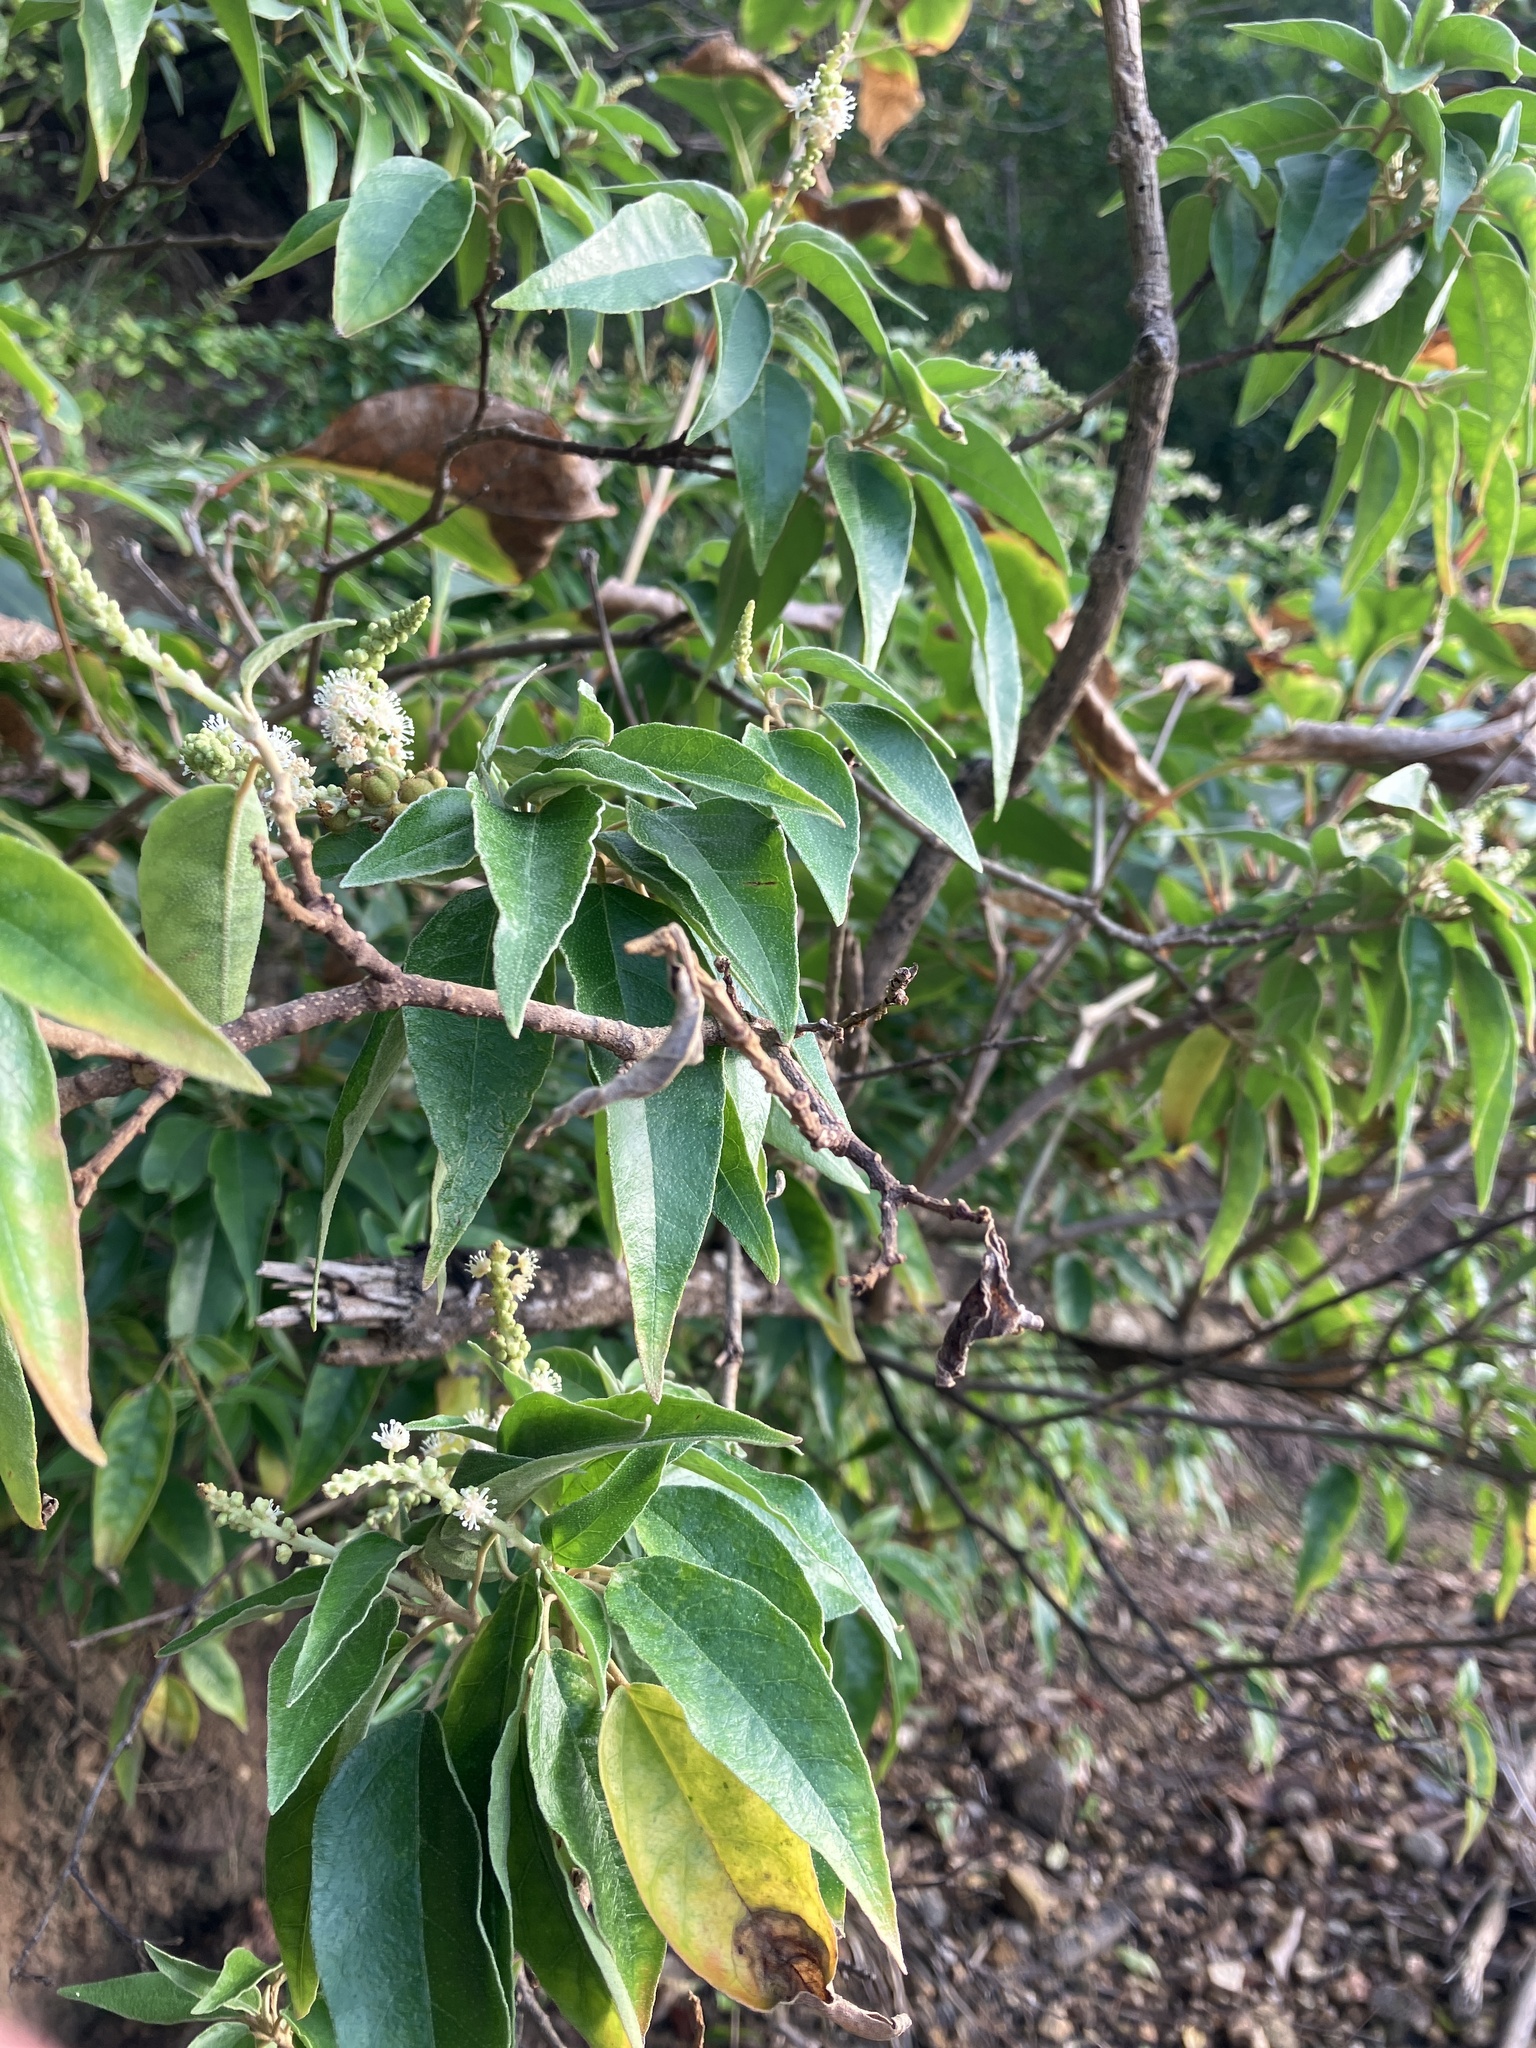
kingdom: Plantae
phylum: Tracheophyta
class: Magnoliopsida
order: Malpighiales
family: Euphorbiaceae
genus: Croton
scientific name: Croton flavens
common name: Yellow balsam
